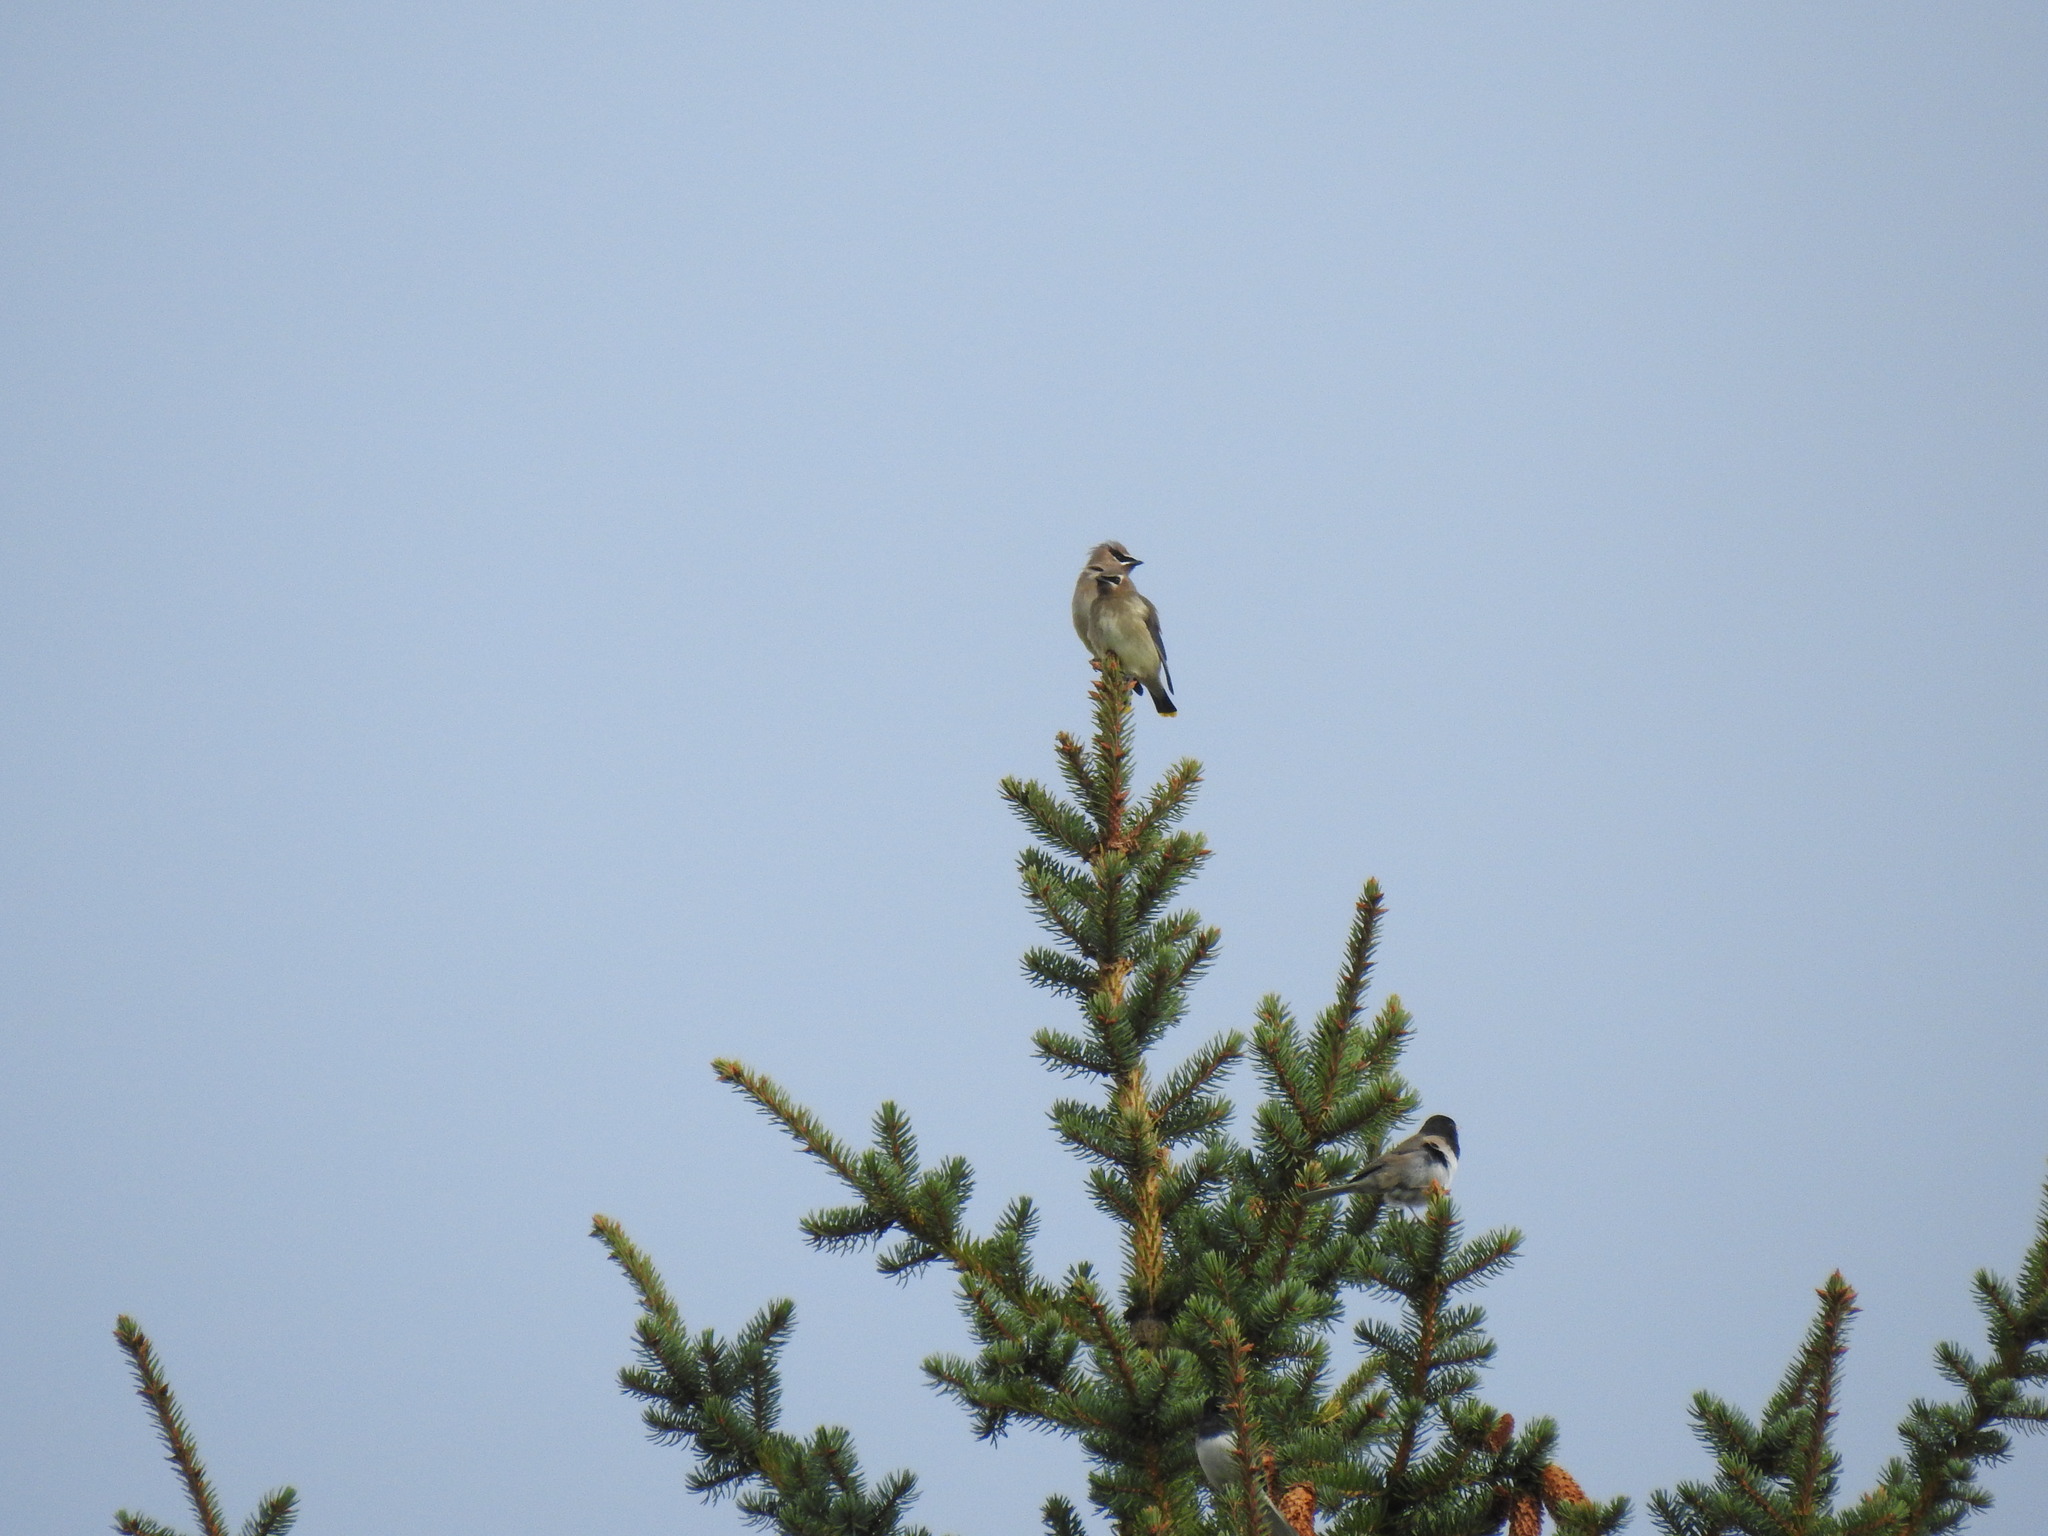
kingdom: Animalia
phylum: Chordata
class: Aves
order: Passeriformes
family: Bombycillidae
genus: Bombycilla
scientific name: Bombycilla cedrorum
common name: Cedar waxwing
